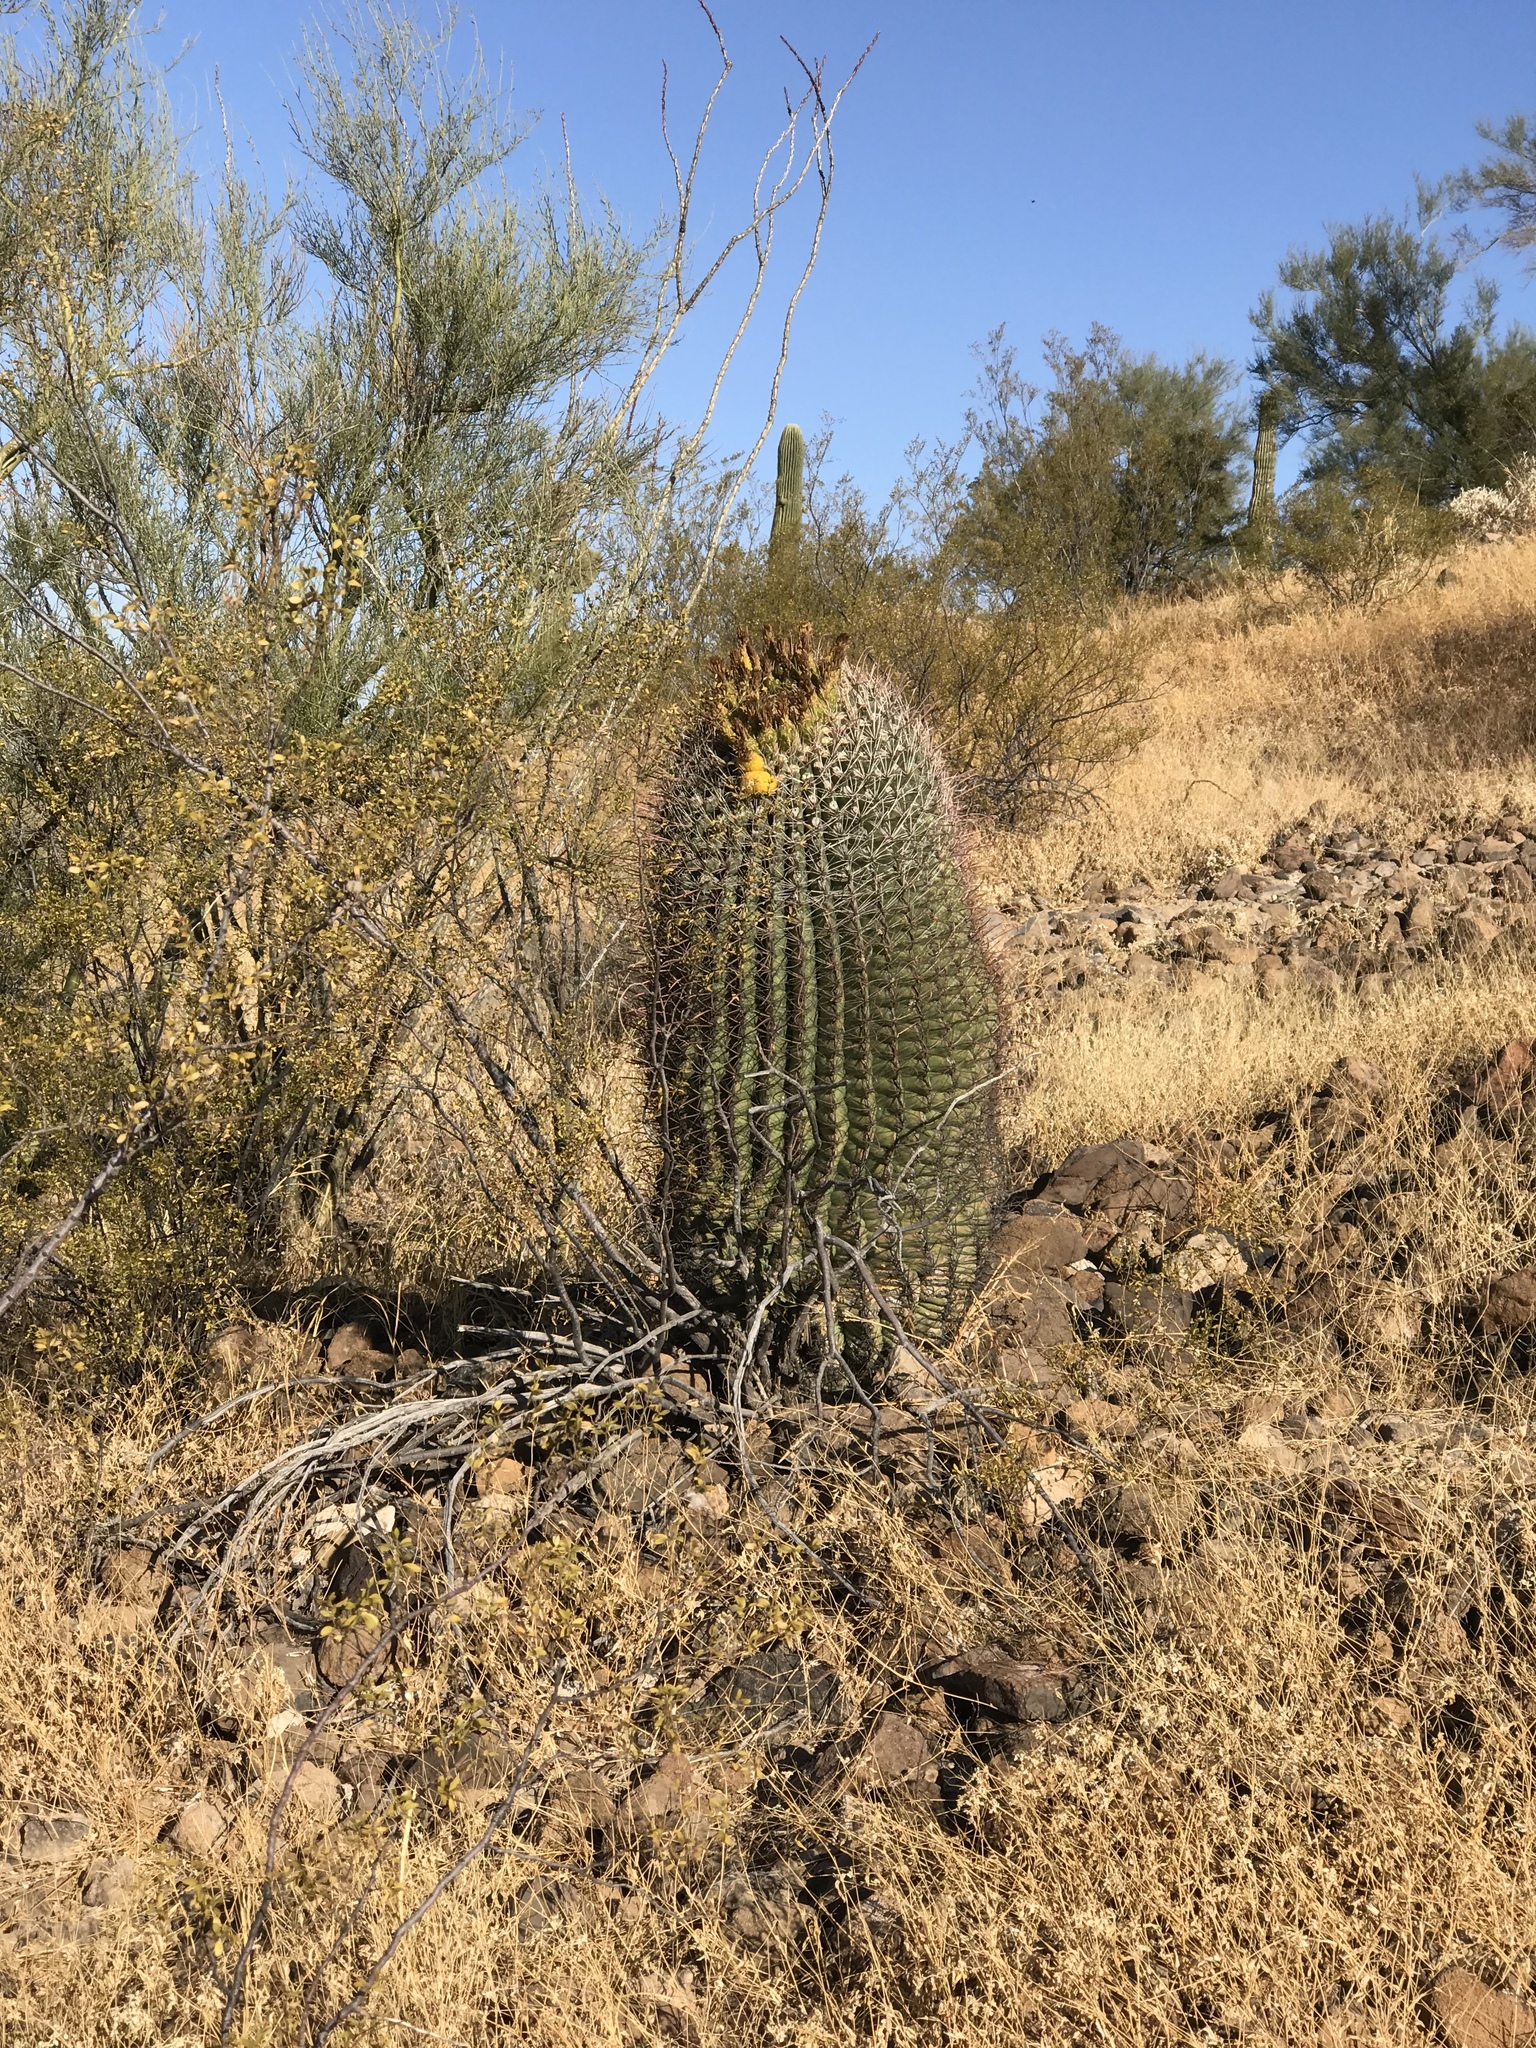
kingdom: Plantae
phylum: Tracheophyta
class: Magnoliopsida
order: Caryophyllales
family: Cactaceae
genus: Ferocactus
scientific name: Ferocactus wislizeni
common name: Candy barrel cactus
